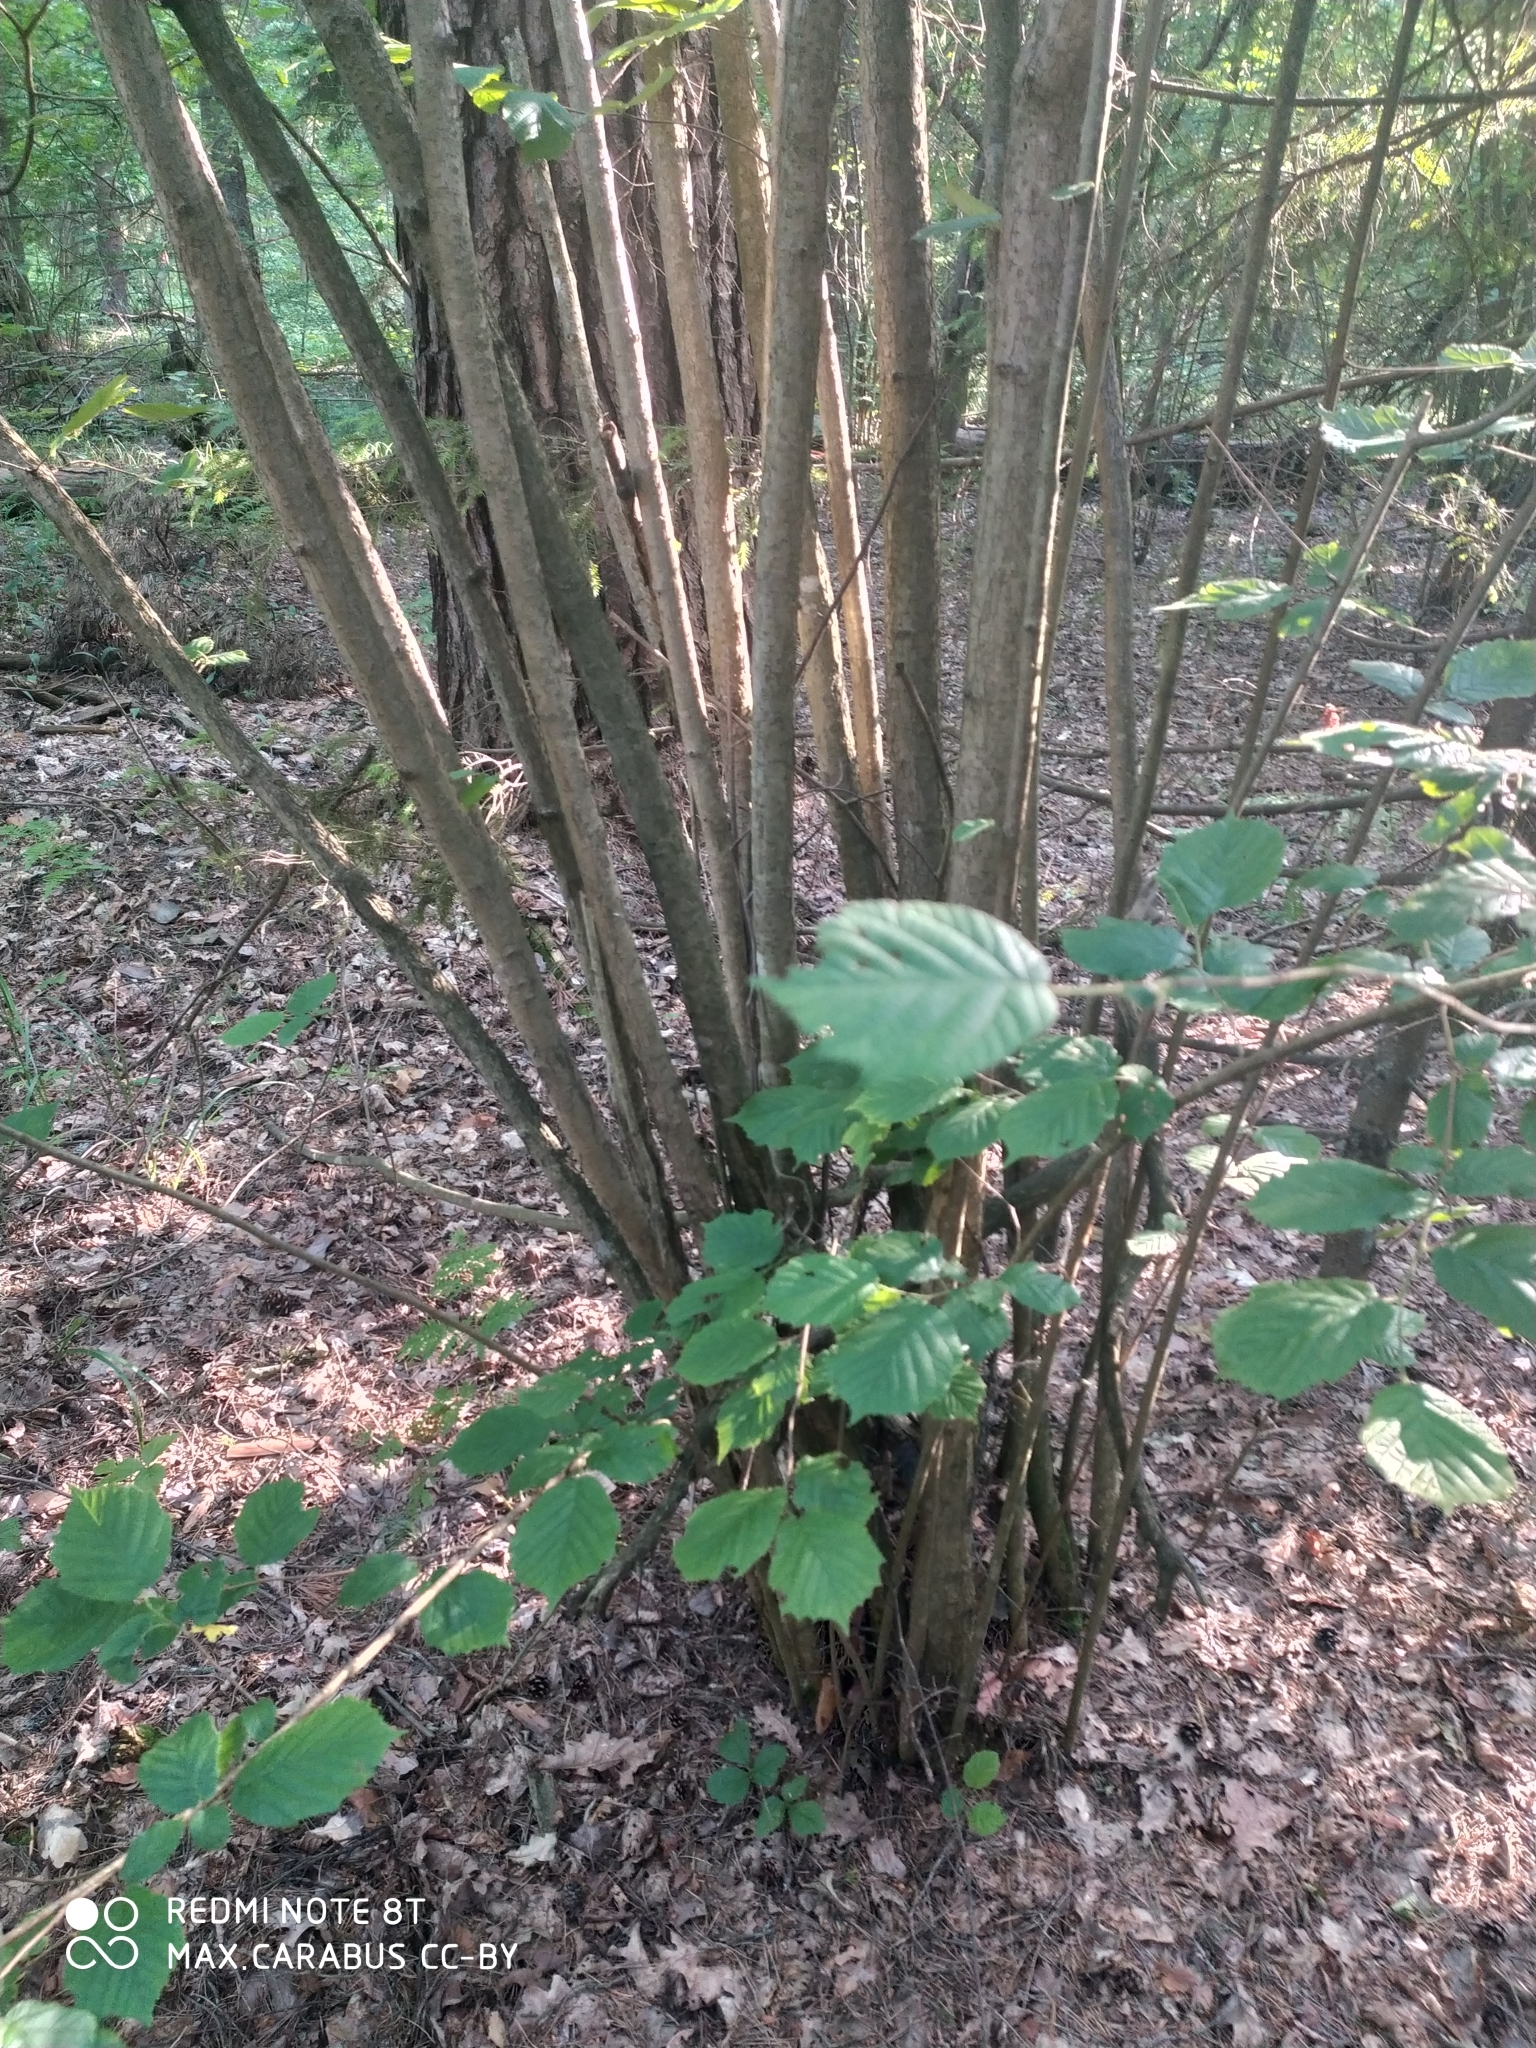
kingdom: Plantae
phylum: Tracheophyta
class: Magnoliopsida
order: Fagales
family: Betulaceae
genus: Corylus
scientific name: Corylus avellana
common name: European hazel
